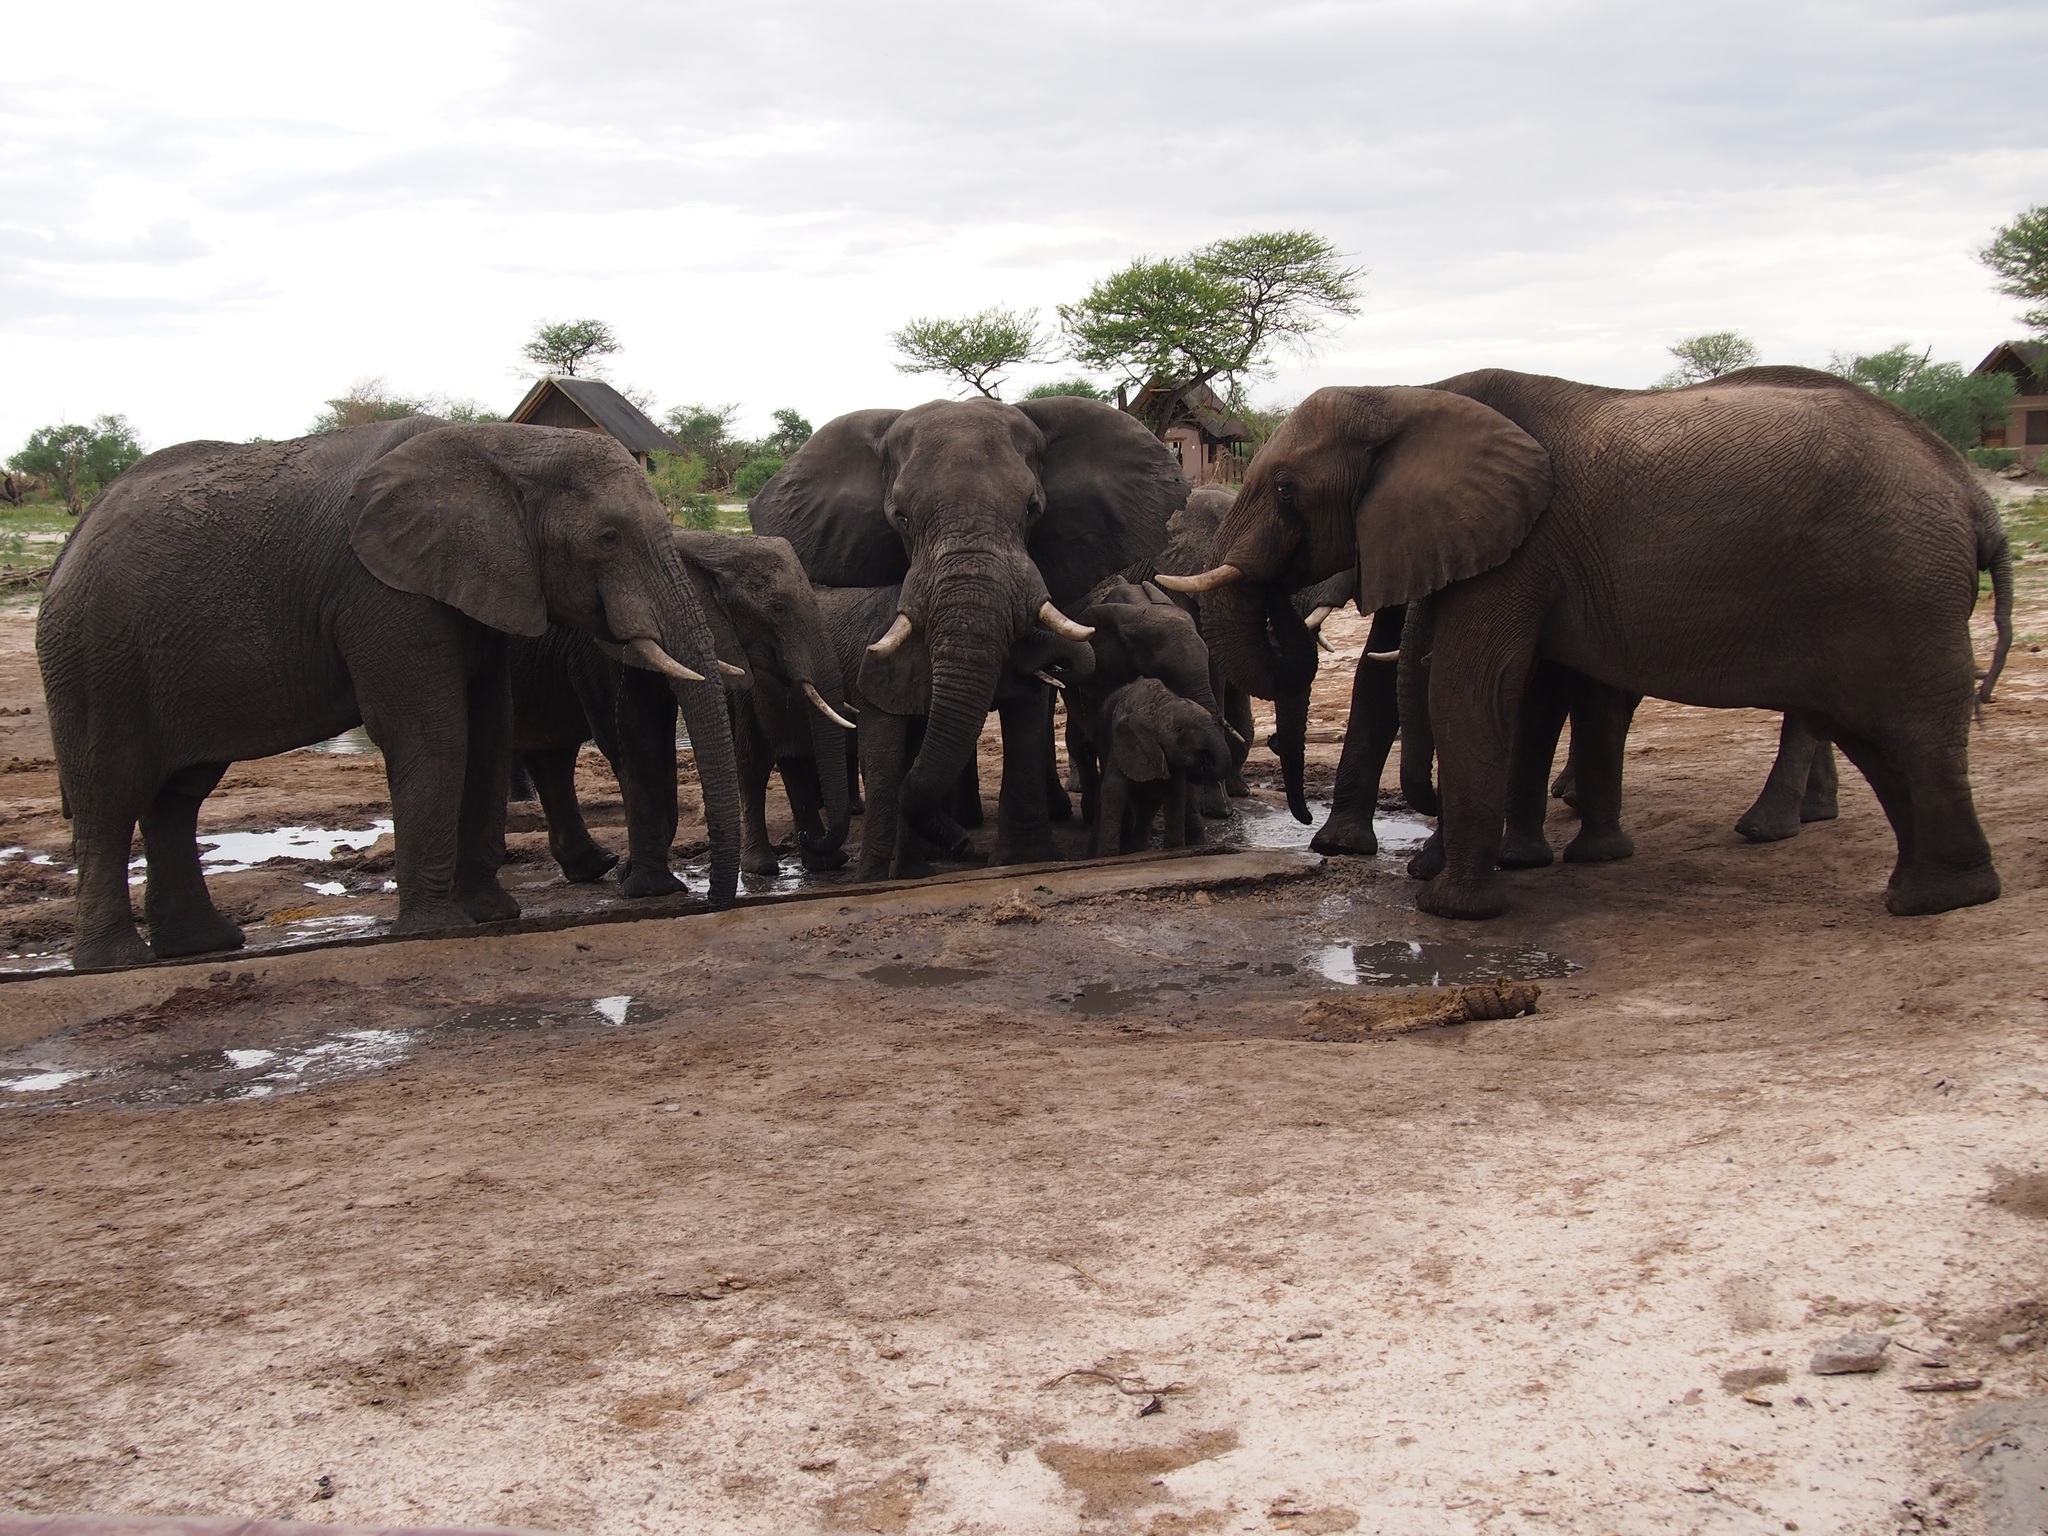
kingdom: Animalia
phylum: Chordata
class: Mammalia
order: Proboscidea
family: Elephantidae
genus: Loxodonta
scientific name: Loxodonta africana
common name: African elephant
